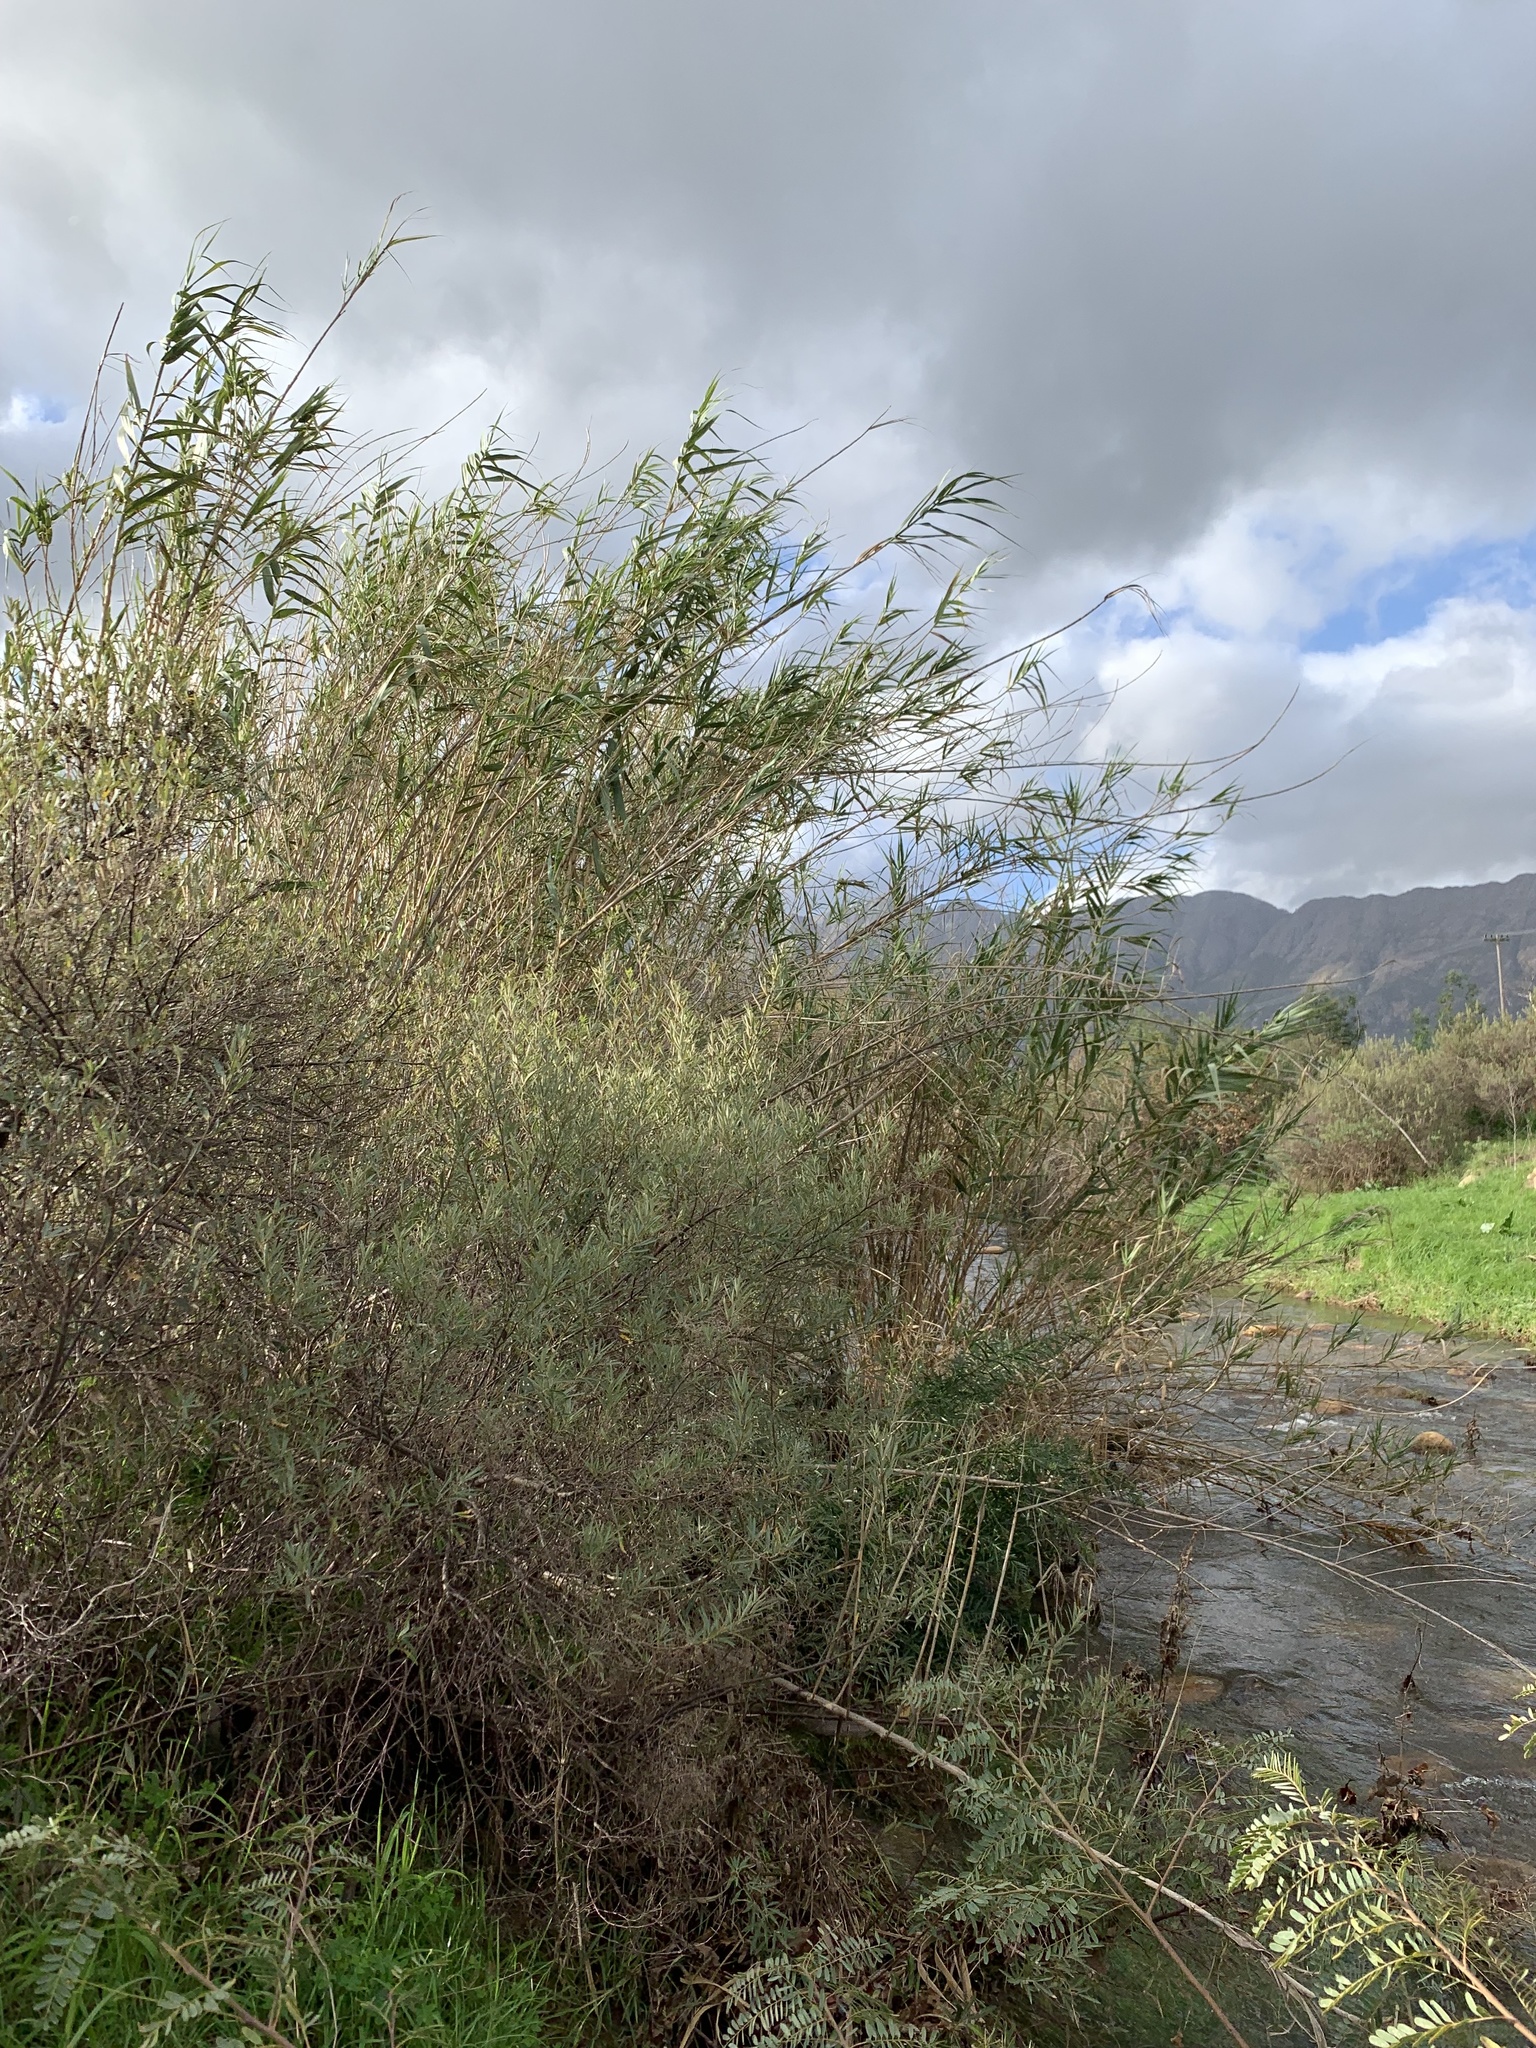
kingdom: Plantae
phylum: Tracheophyta
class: Liliopsida
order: Poales
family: Poaceae
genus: Arundo
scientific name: Arundo donax
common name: Giant reed
